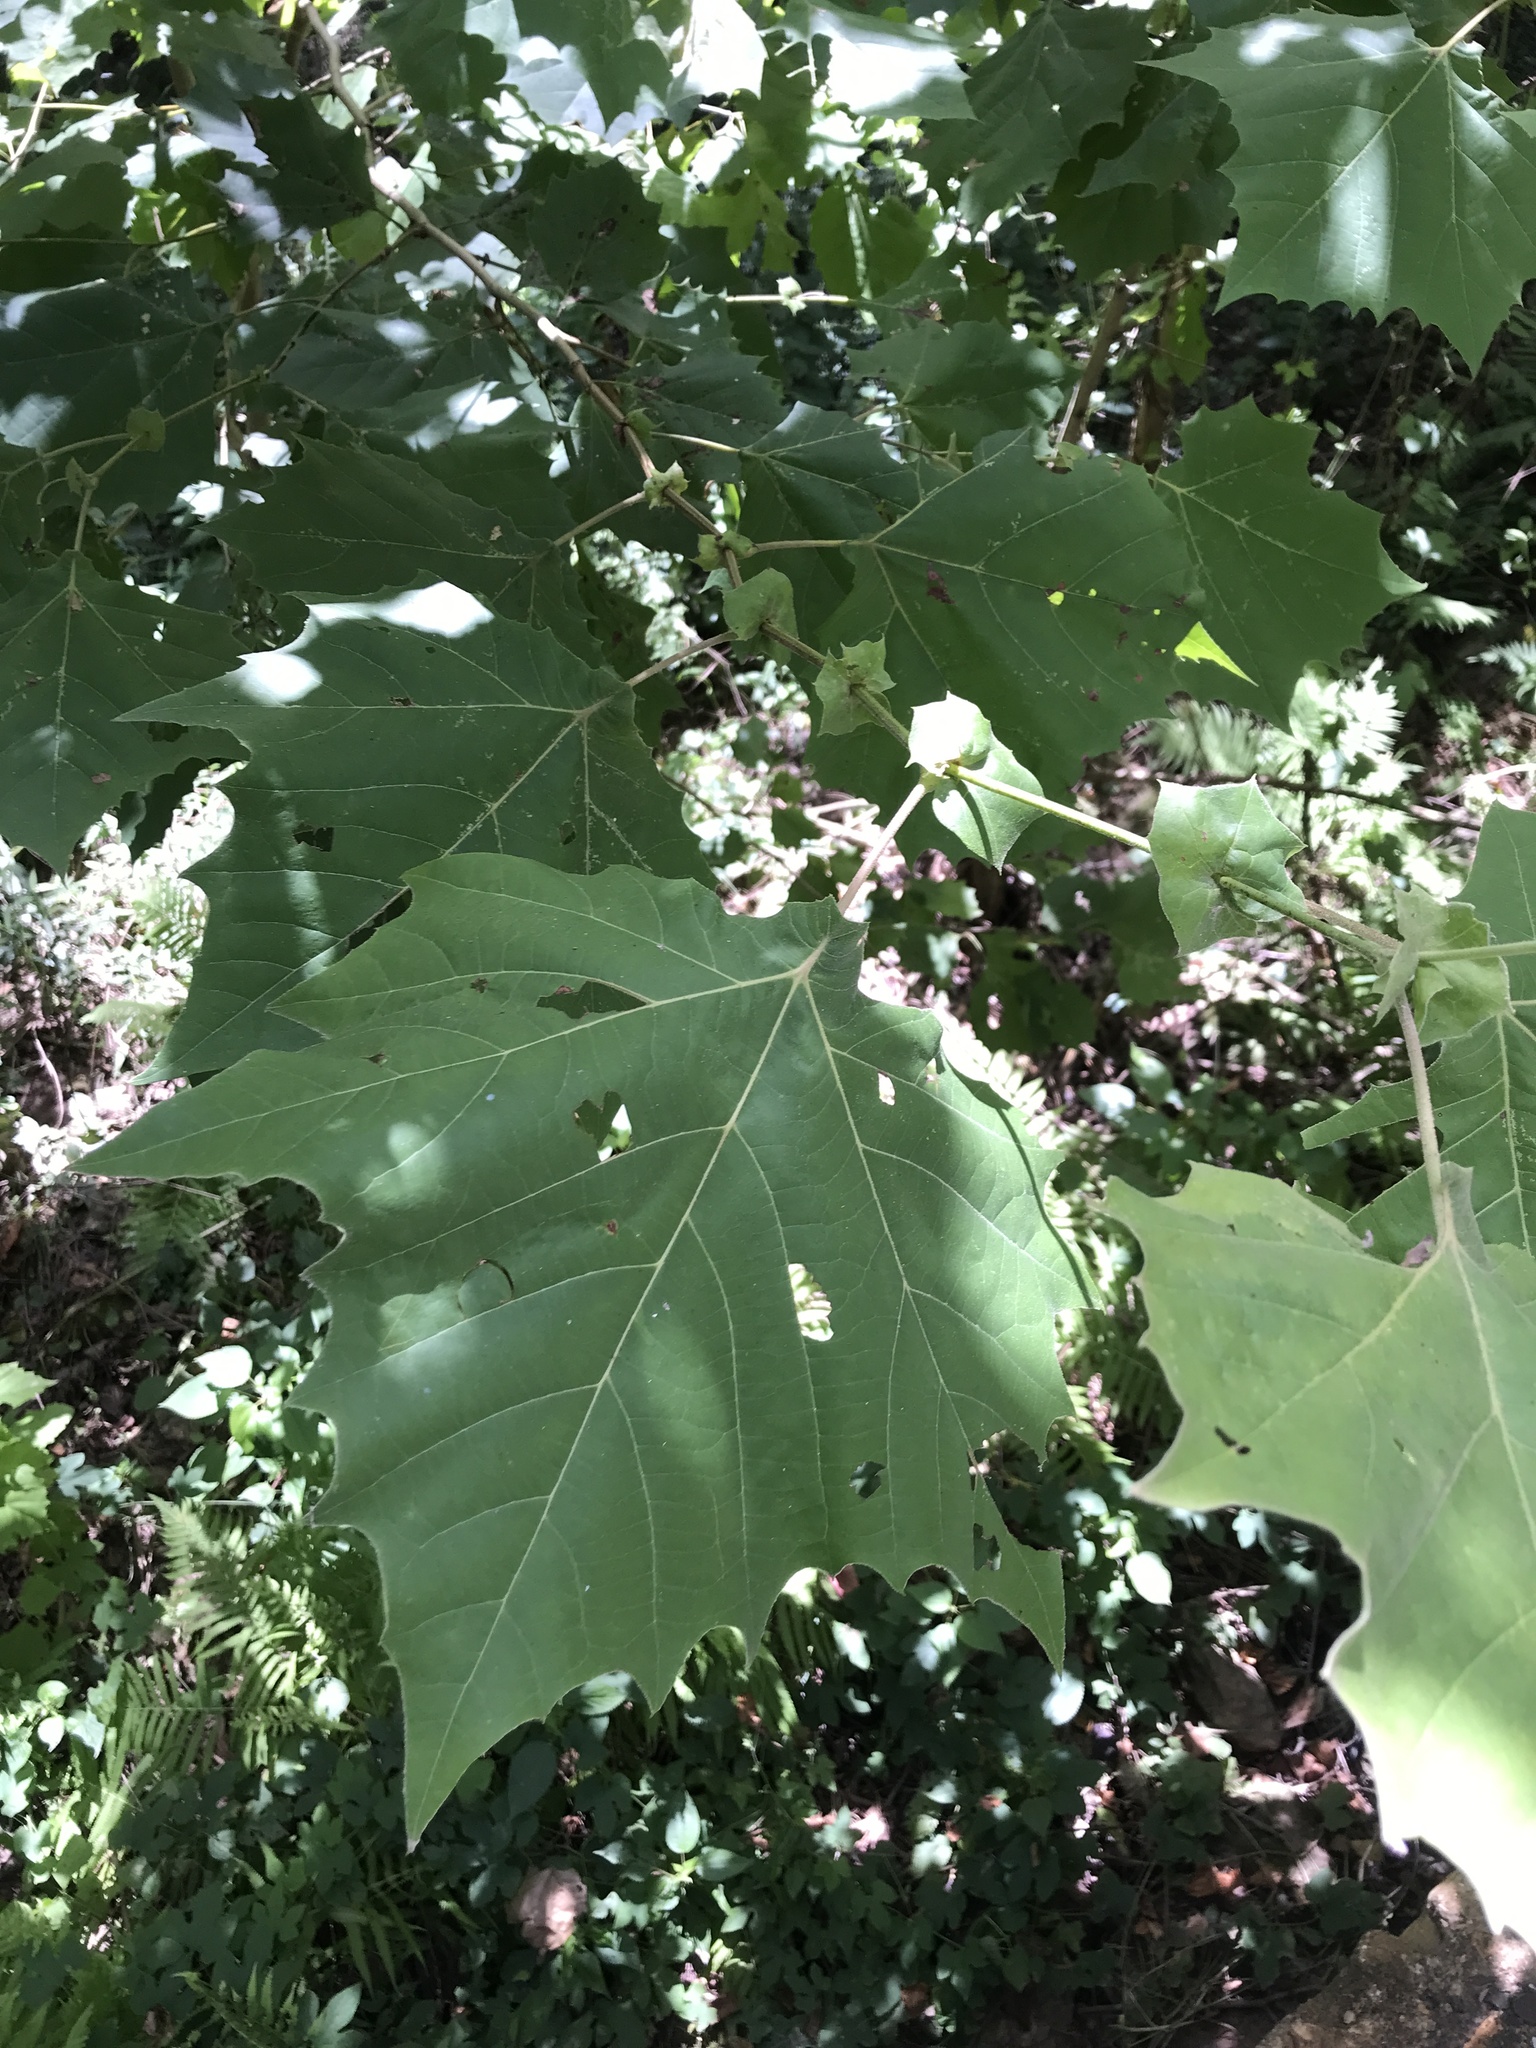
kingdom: Plantae
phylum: Tracheophyta
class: Magnoliopsida
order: Proteales
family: Platanaceae
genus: Platanus
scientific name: Platanus occidentalis
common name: American sycamore
